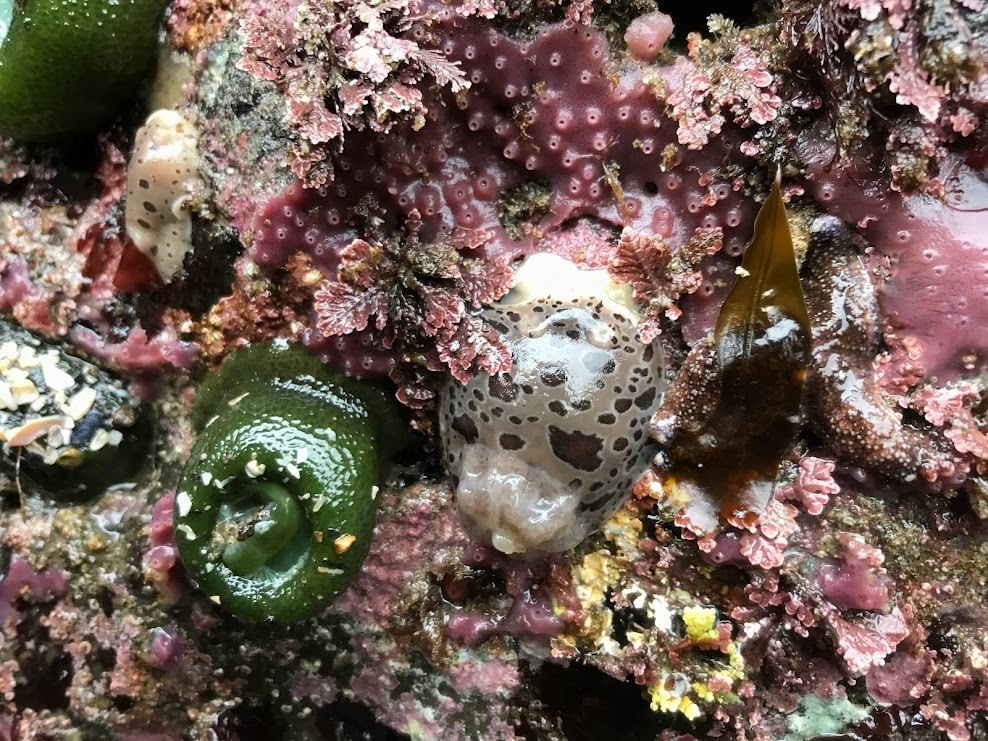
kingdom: Animalia
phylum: Mollusca
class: Gastropoda
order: Nudibranchia
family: Discodorididae
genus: Diaulula
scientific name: Diaulula odonoghuei
